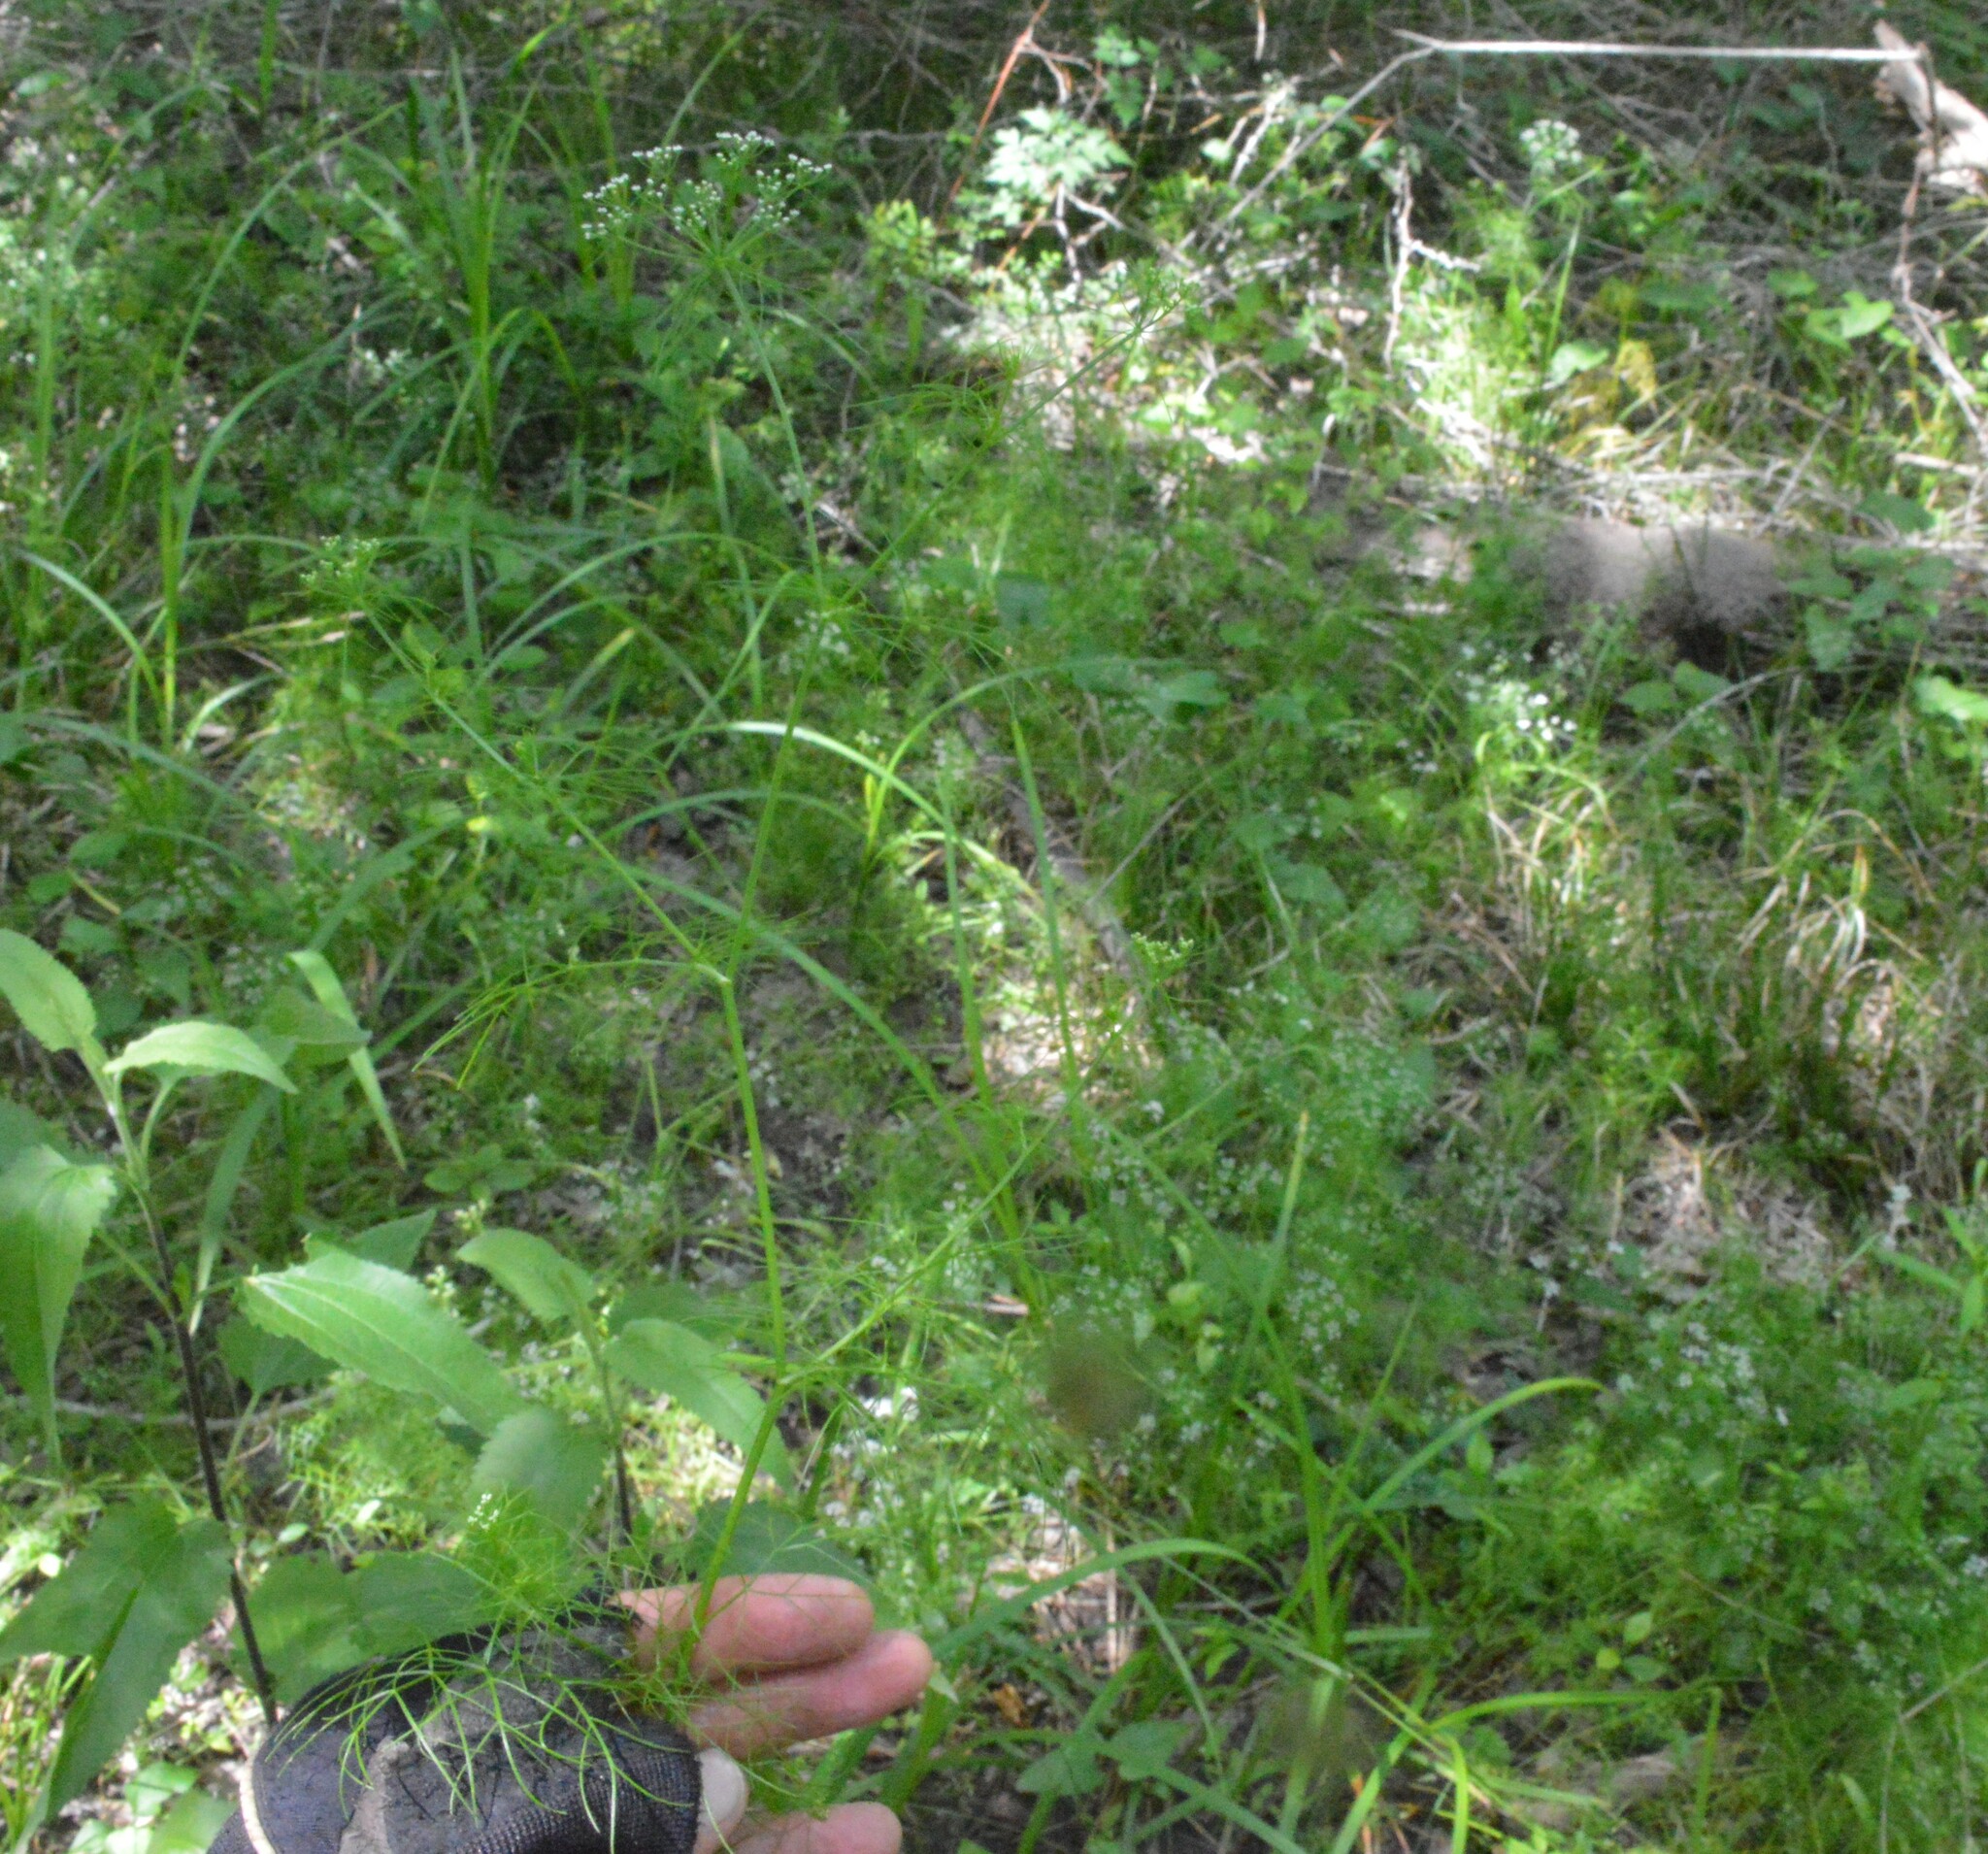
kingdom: Plantae
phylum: Tracheophyta
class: Magnoliopsida
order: Apiales
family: Apiaceae
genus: Ptilimnium
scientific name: Ptilimnium capillaceum
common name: Herbwilliam
